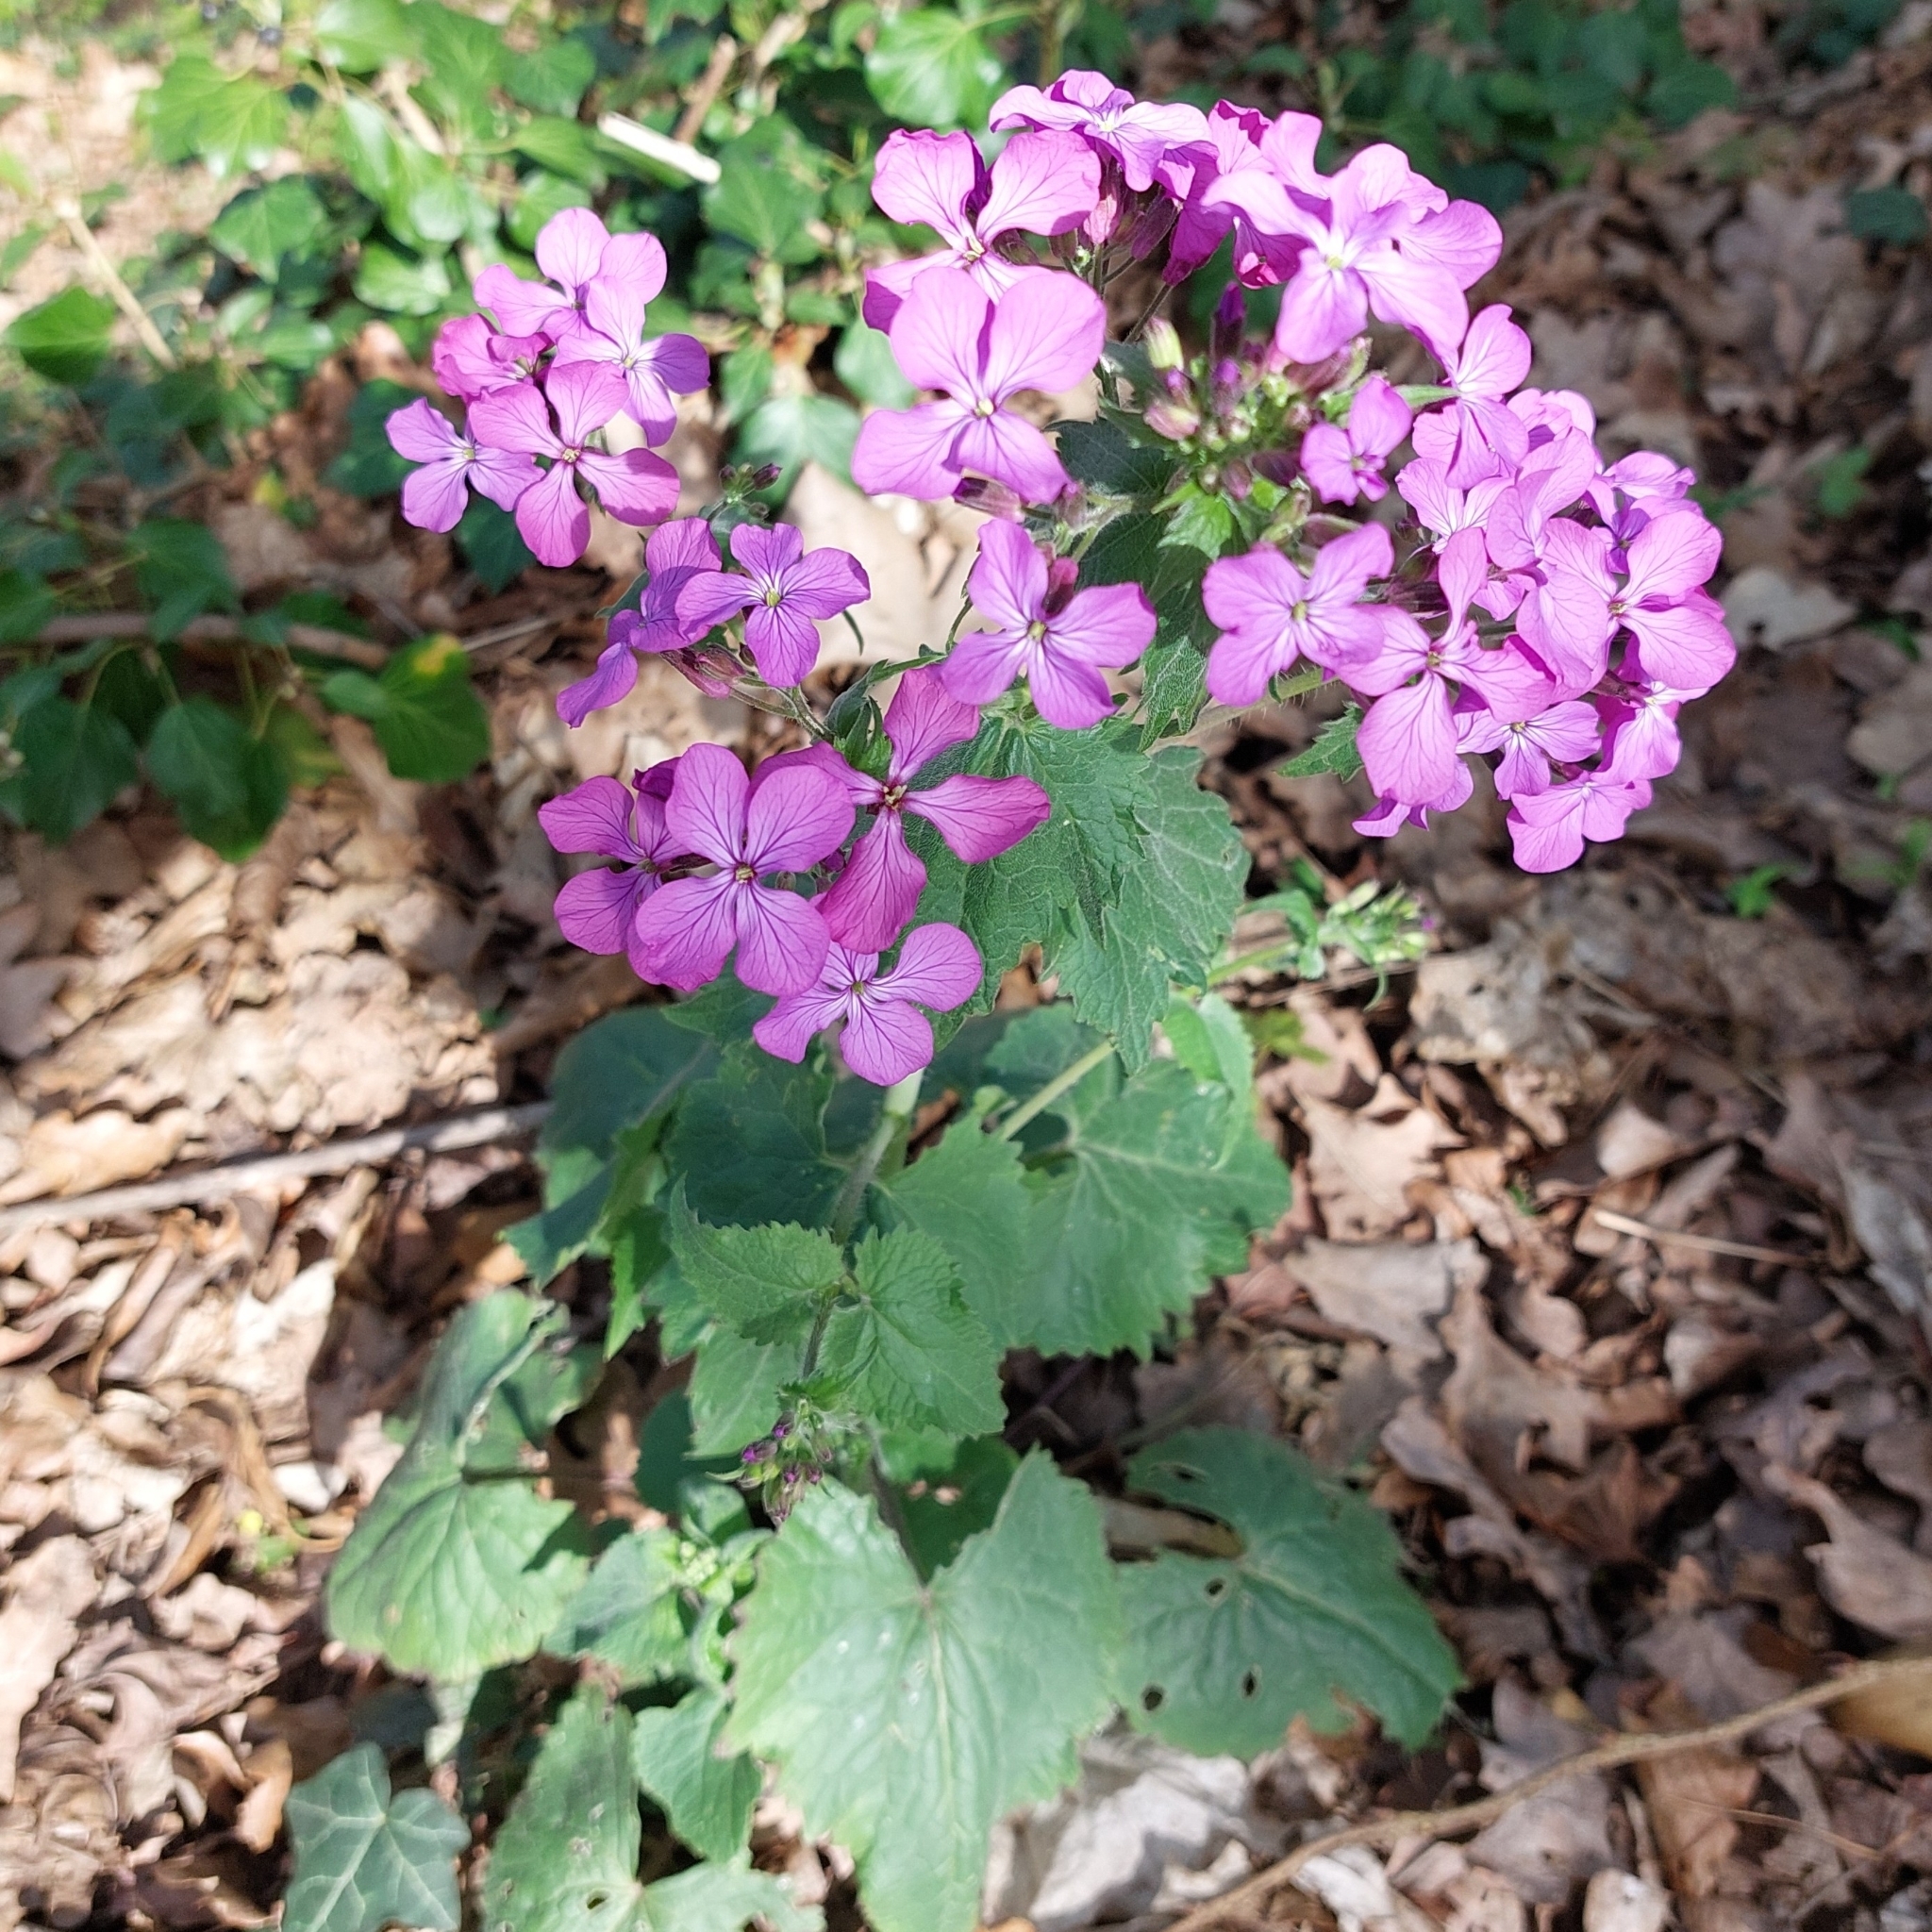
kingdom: Plantae
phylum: Tracheophyta
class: Magnoliopsida
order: Brassicales
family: Brassicaceae
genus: Lunaria
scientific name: Lunaria annua
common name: Honesty
